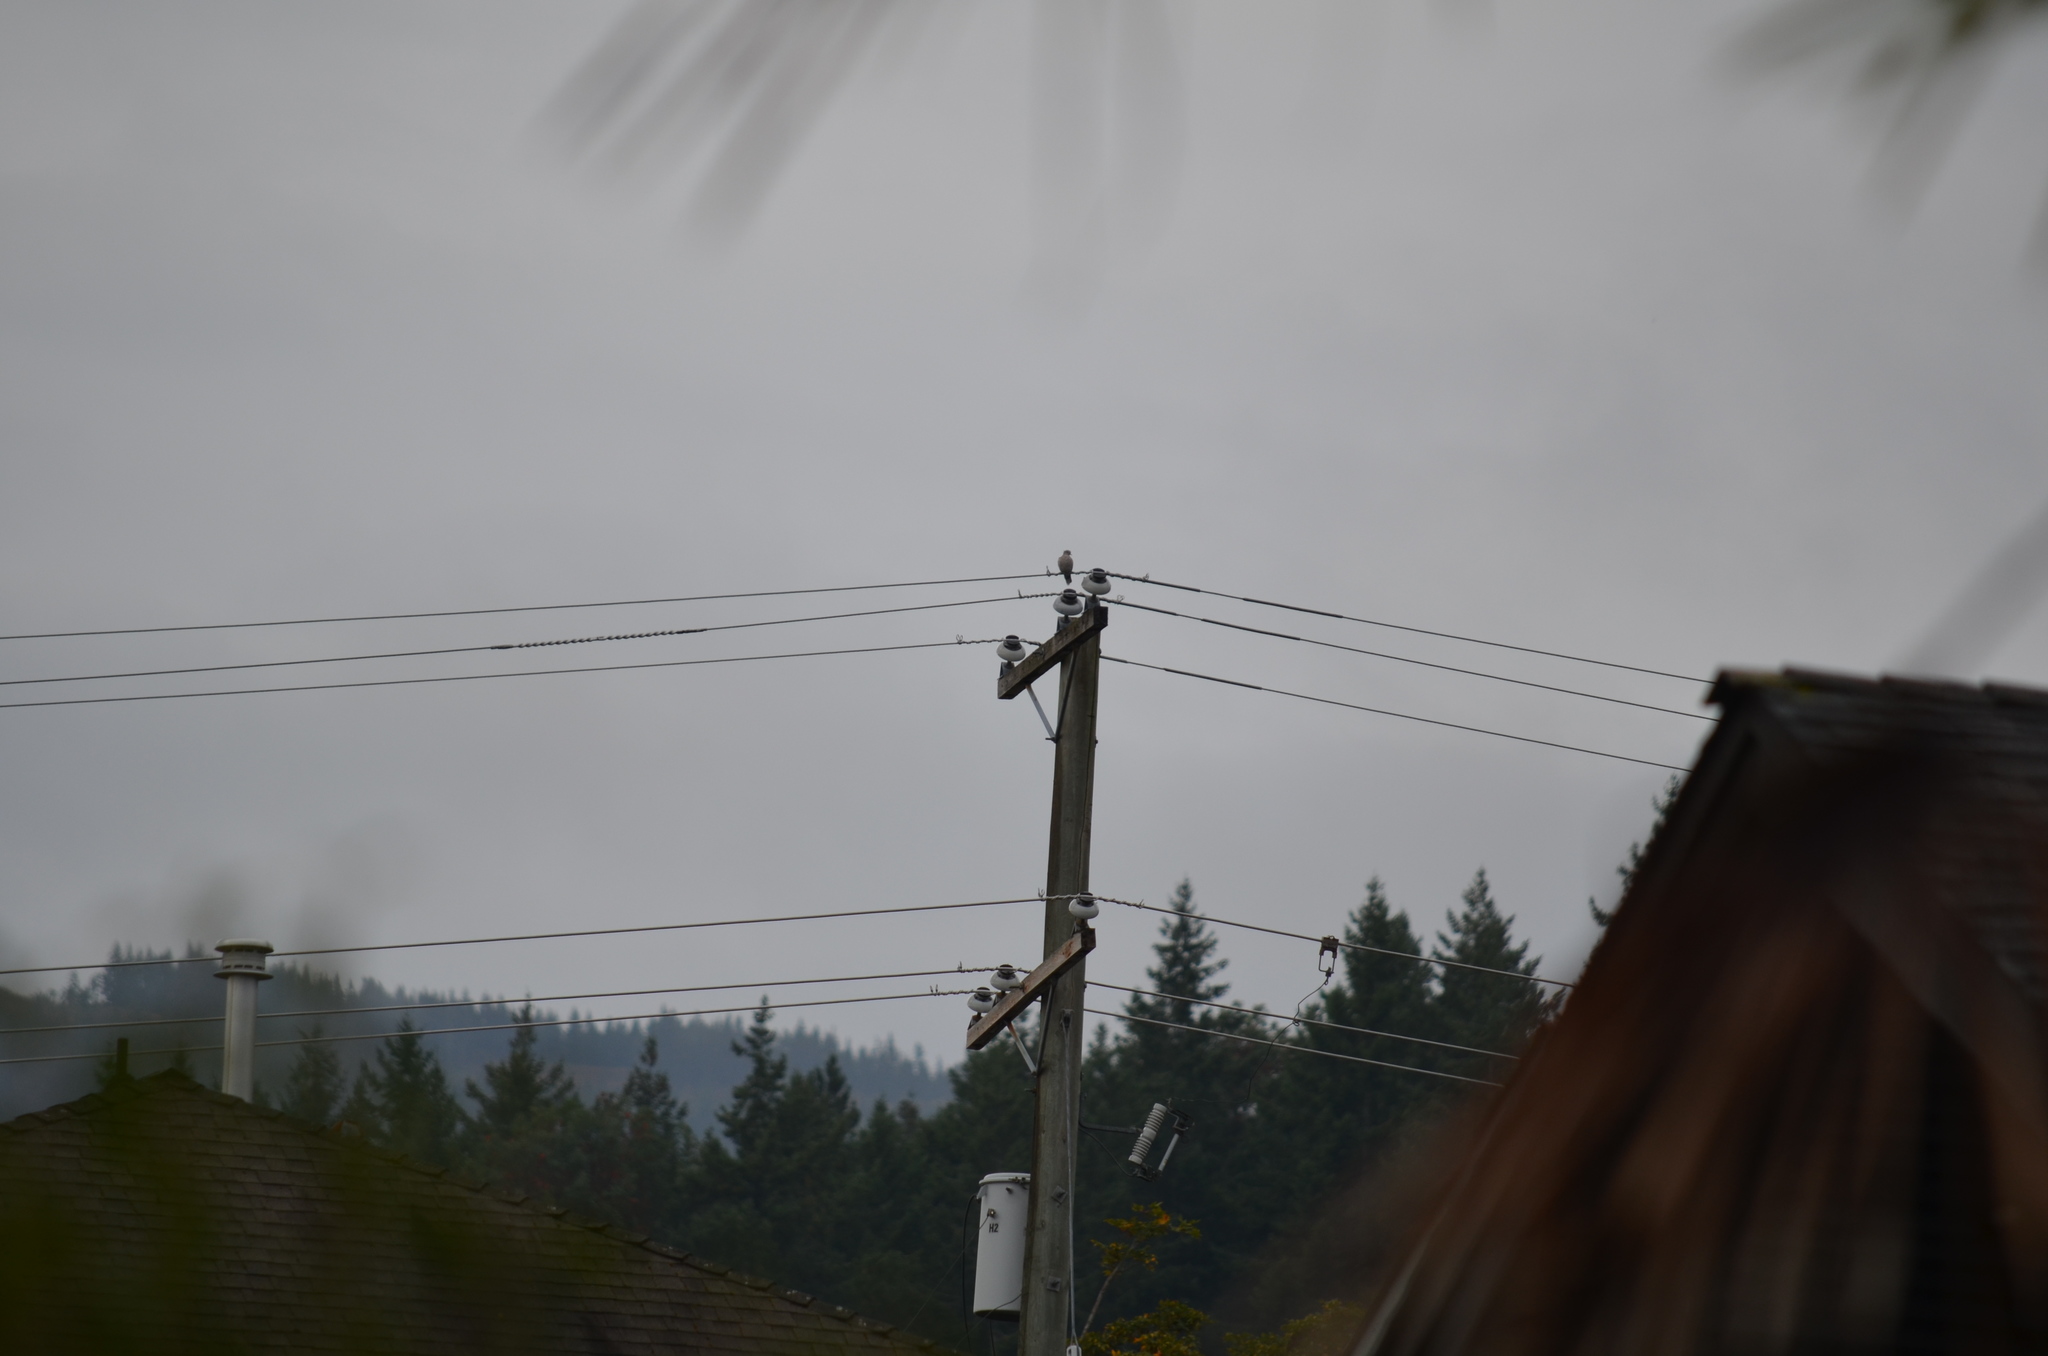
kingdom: Animalia
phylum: Chordata
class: Aves
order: Columbiformes
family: Columbidae
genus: Streptopelia
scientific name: Streptopelia decaocto
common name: Eurasian collared dove
